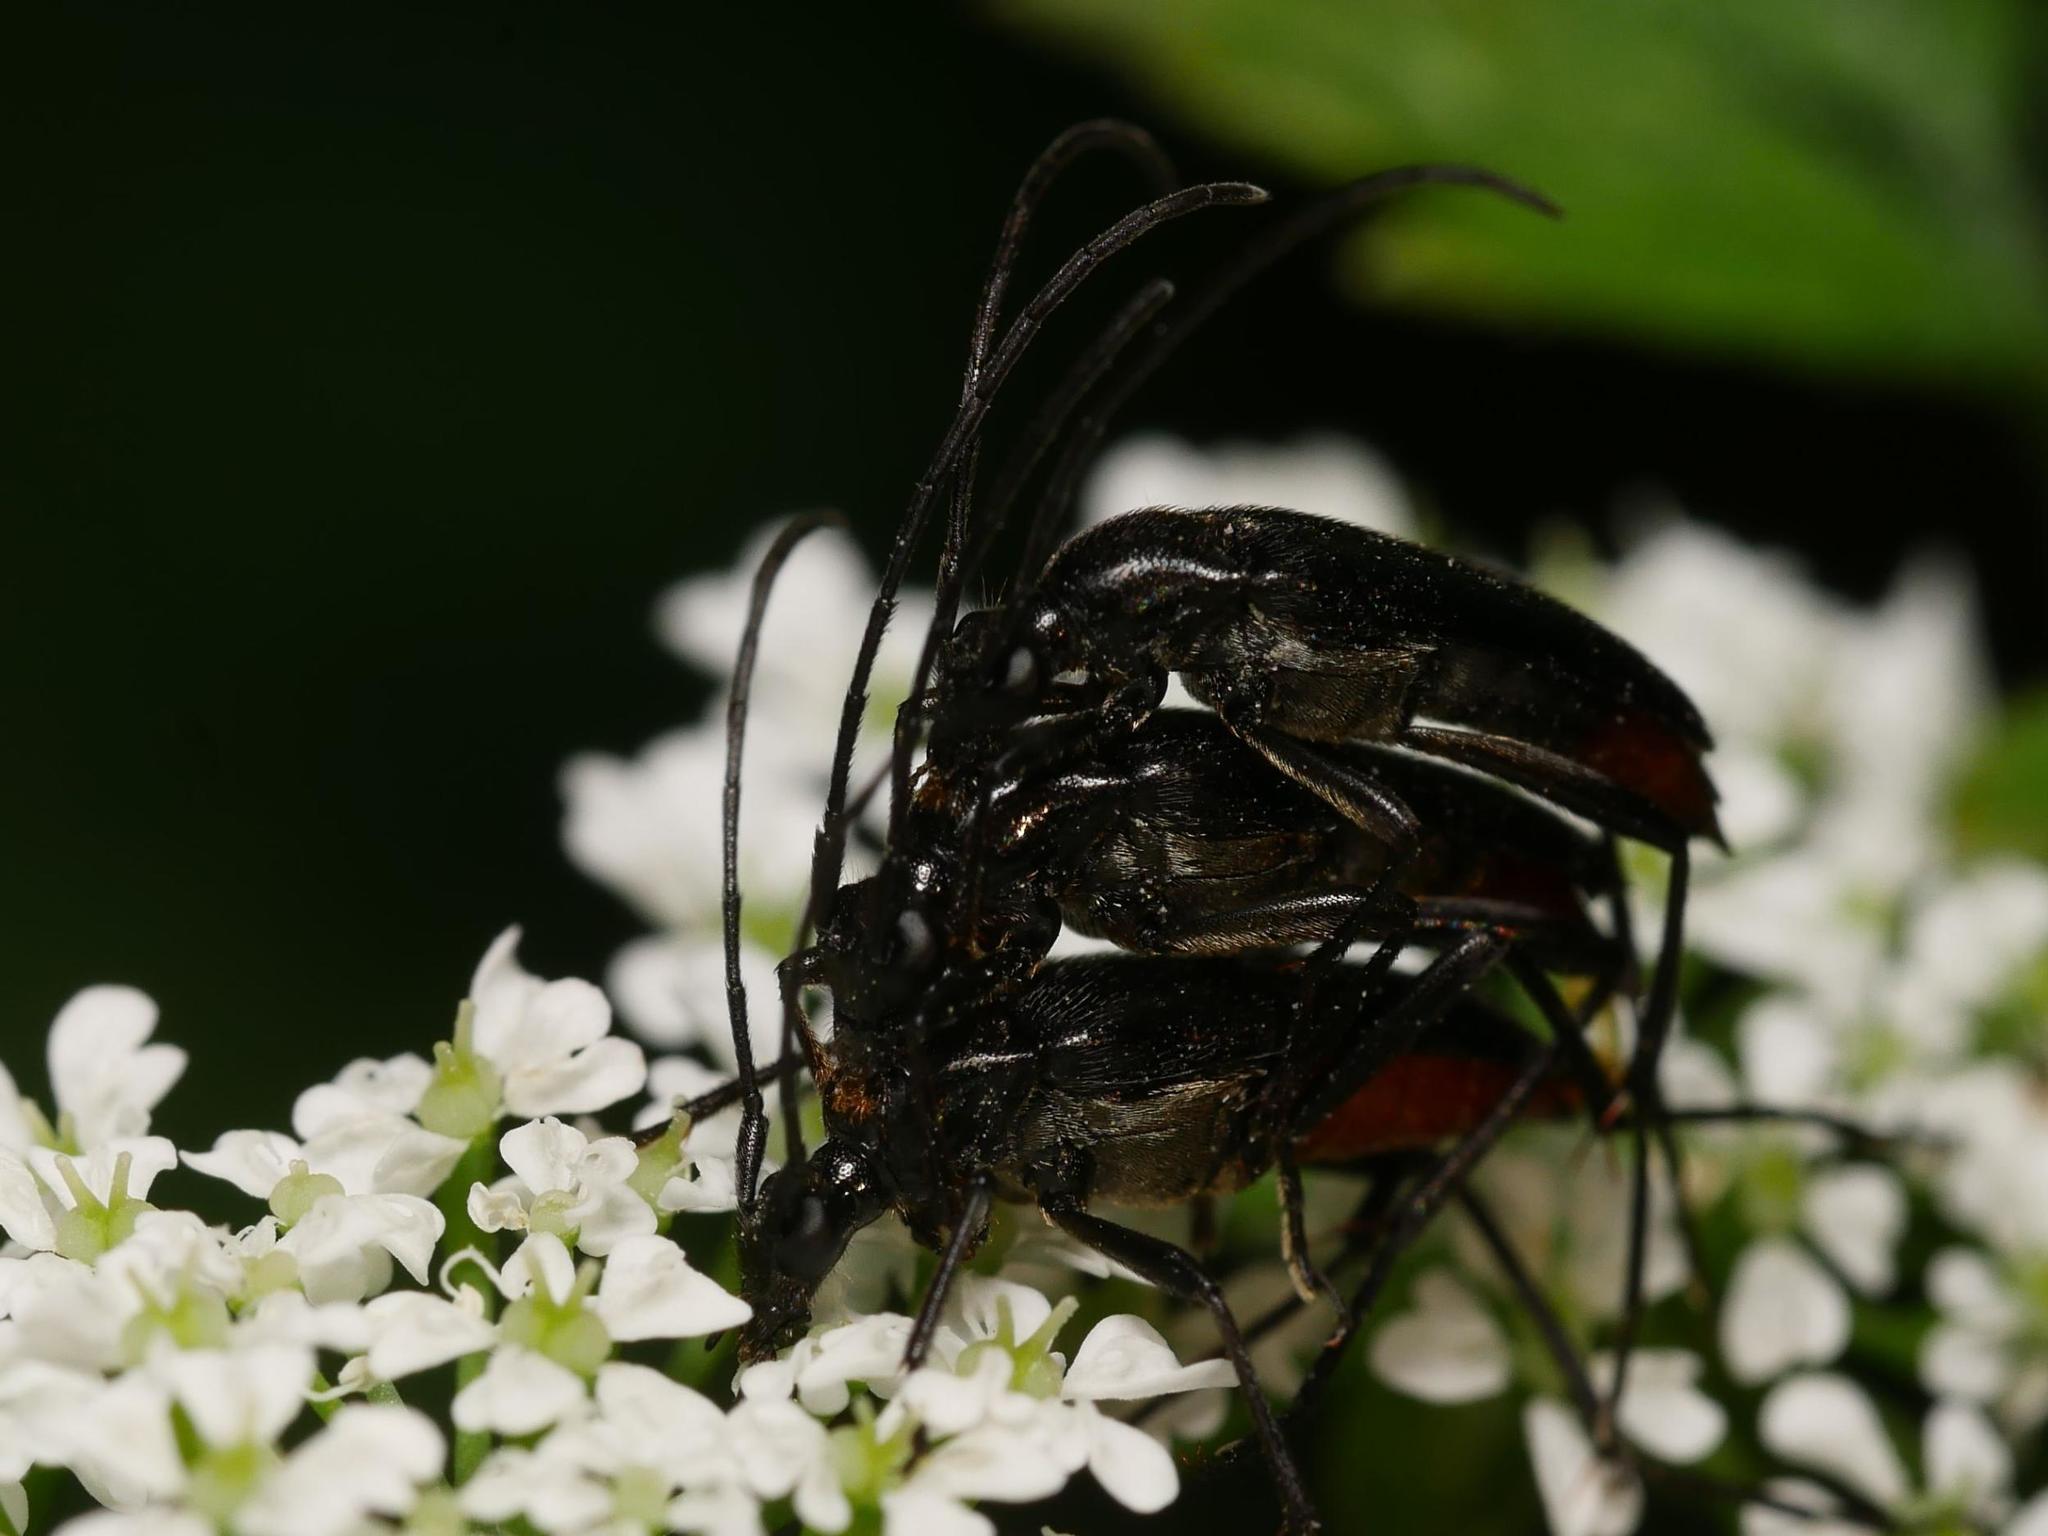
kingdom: Animalia
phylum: Arthropoda
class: Insecta
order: Coleoptera
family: Cerambycidae
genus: Stenurella
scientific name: Stenurella nigra
